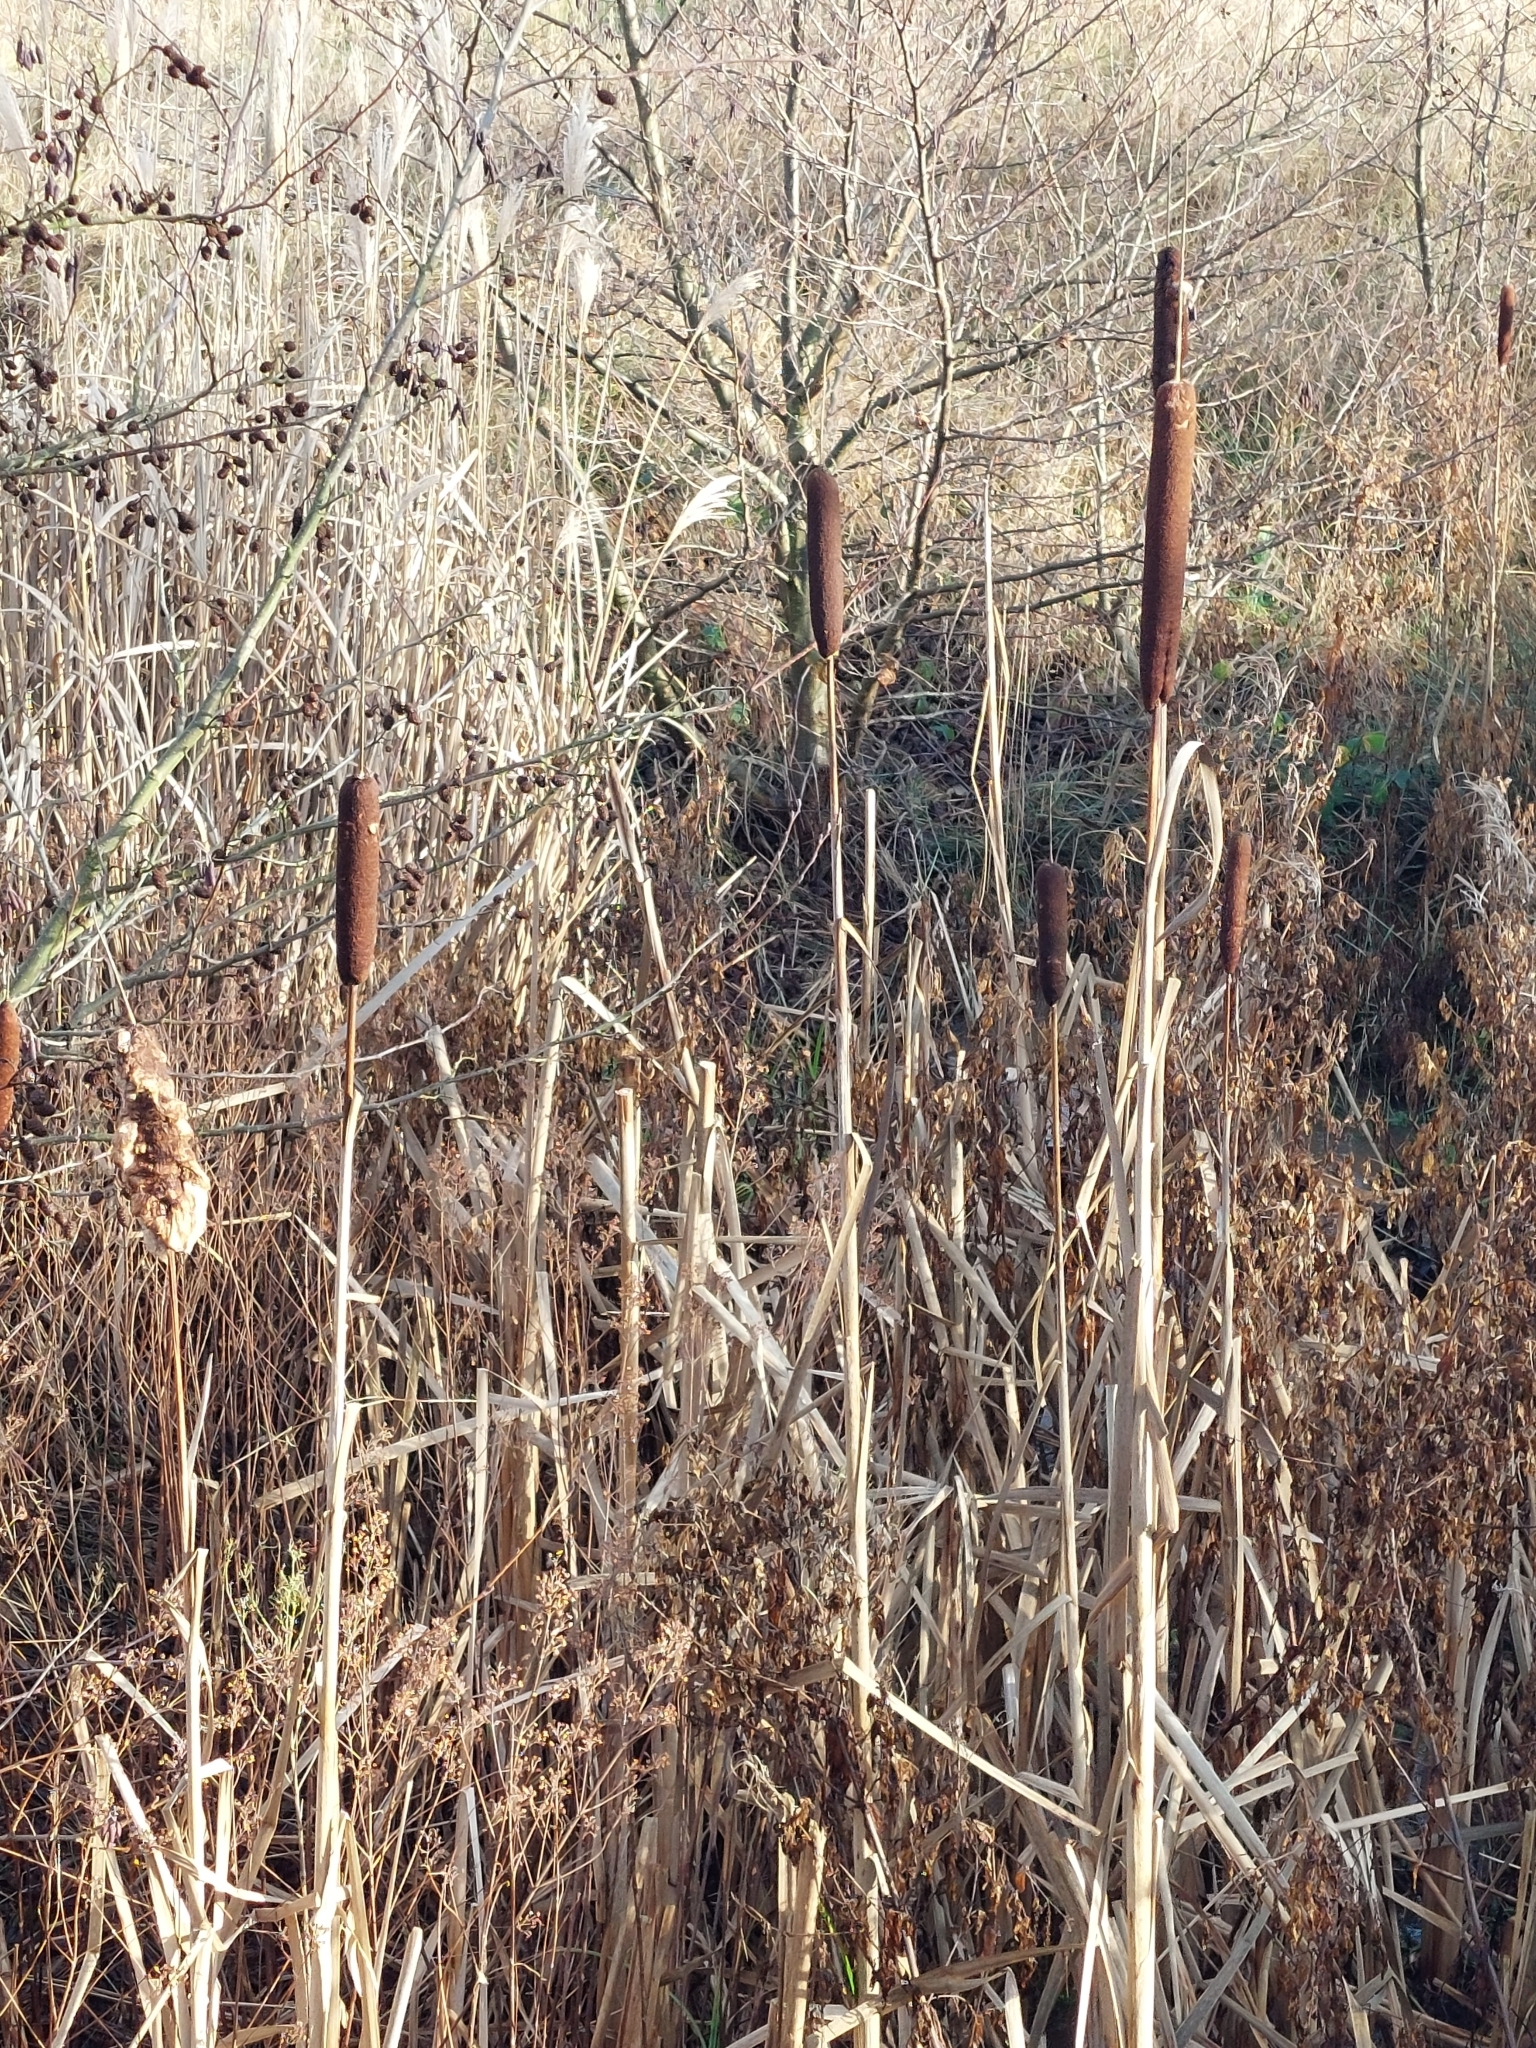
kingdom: Plantae
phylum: Tracheophyta
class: Liliopsida
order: Poales
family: Typhaceae
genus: Typha
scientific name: Typha latifolia
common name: Broadleaf cattail
